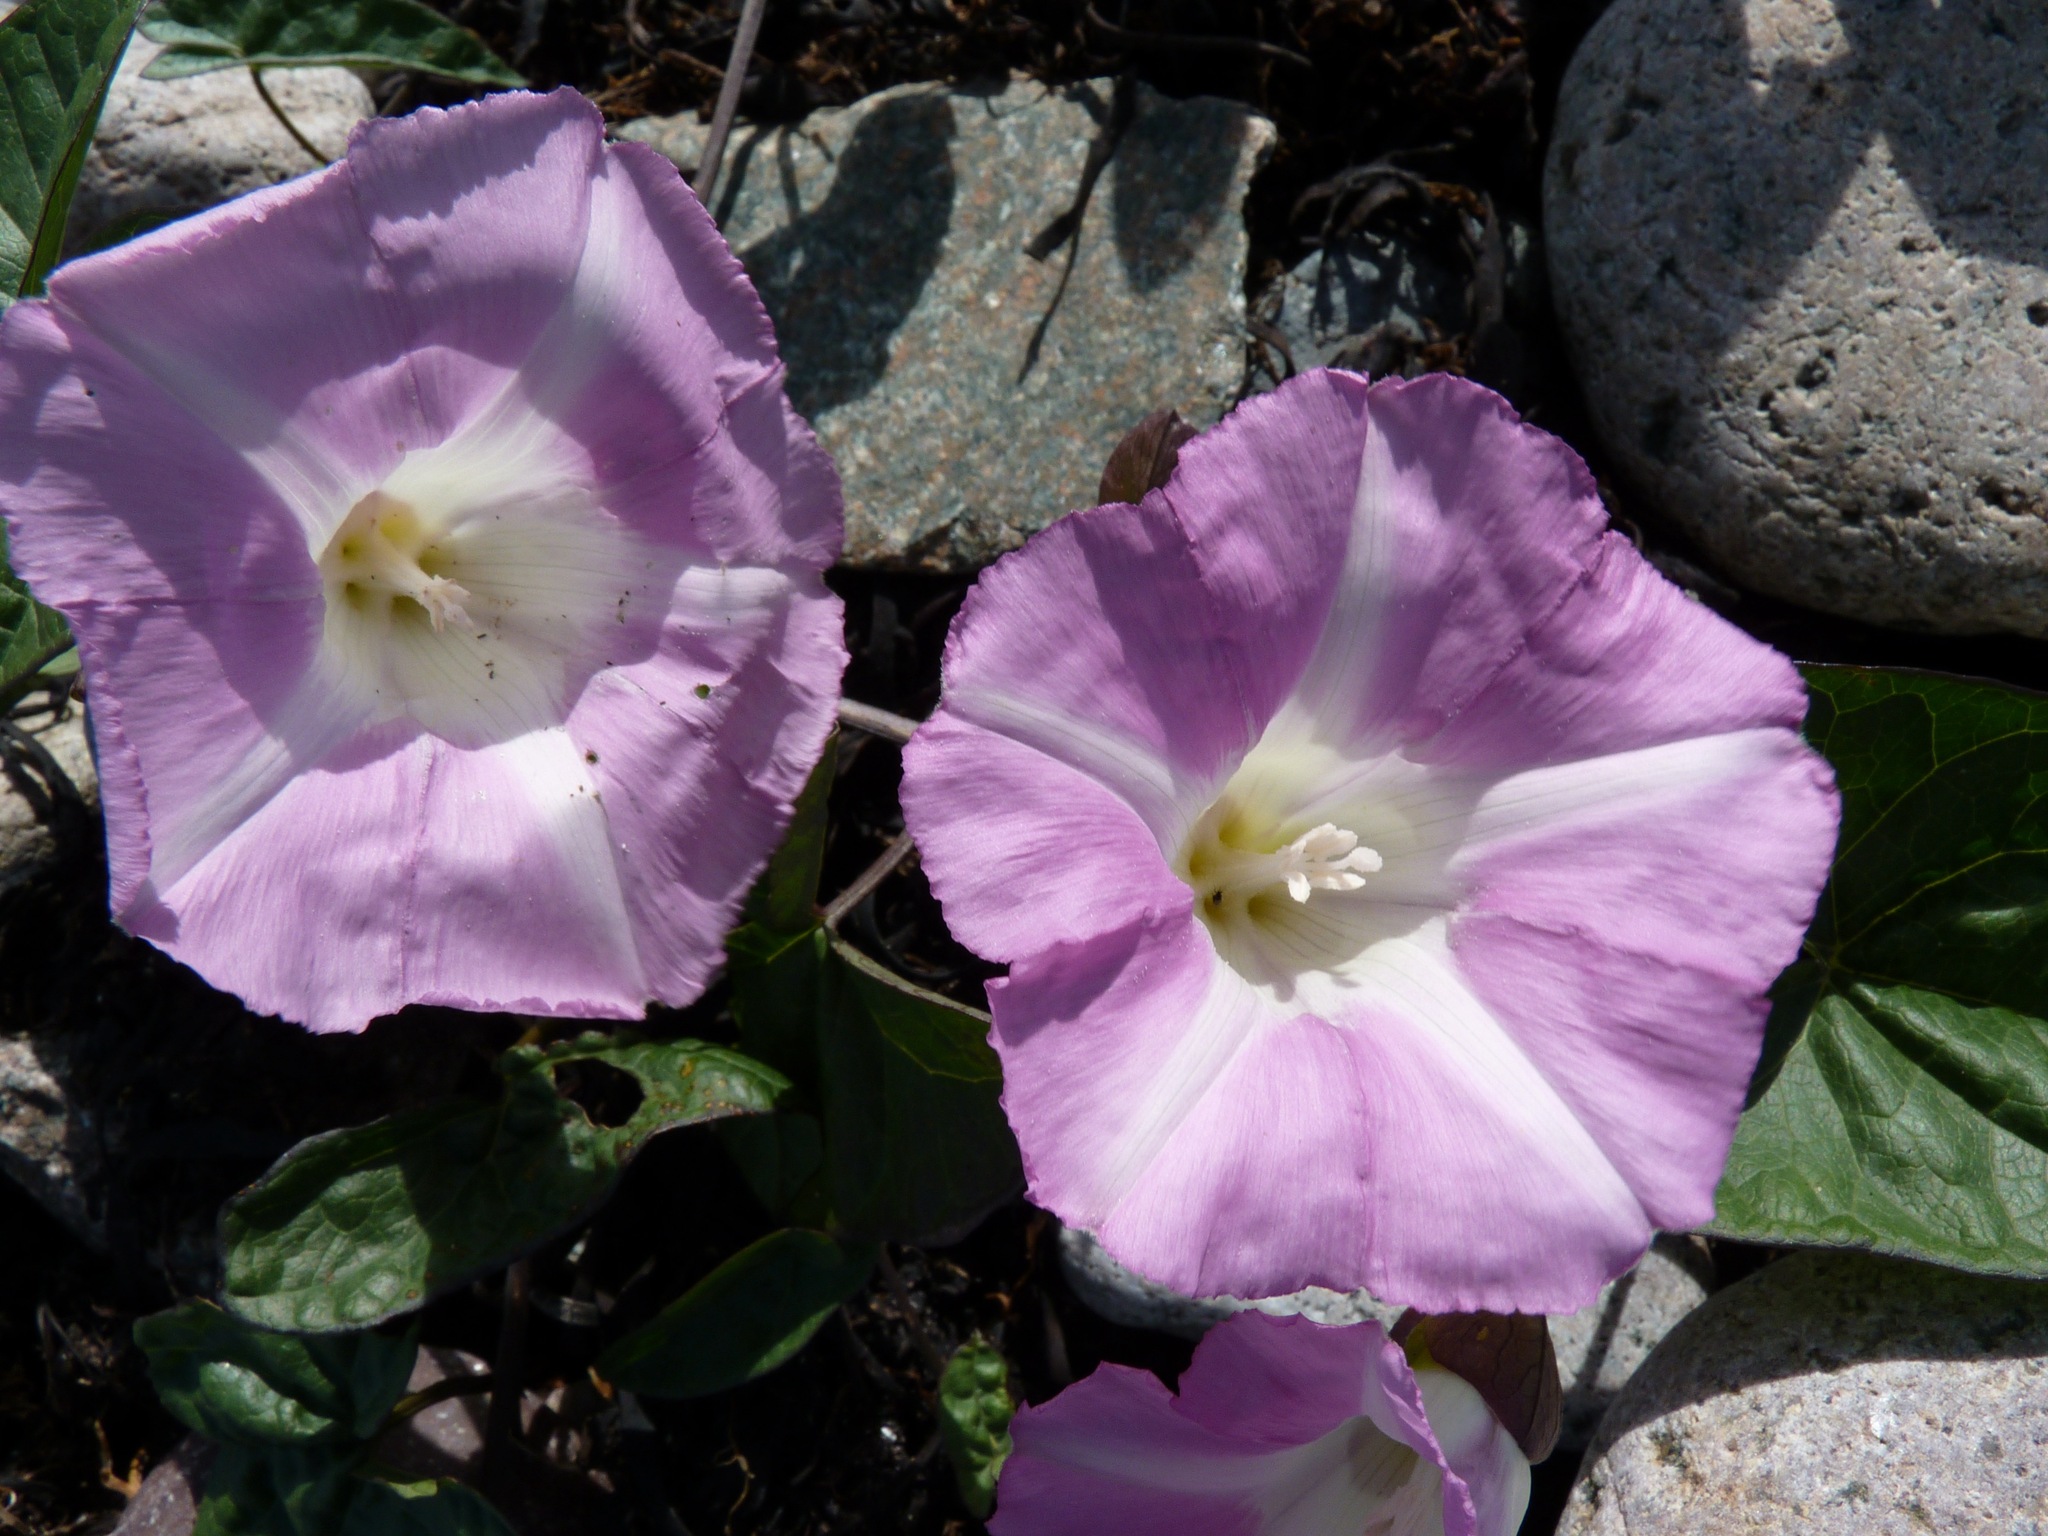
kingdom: Plantae
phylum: Tracheophyta
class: Magnoliopsida
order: Solanales
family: Convolvulaceae
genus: Calystegia
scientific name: Calystegia sepium
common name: Hedge bindweed
